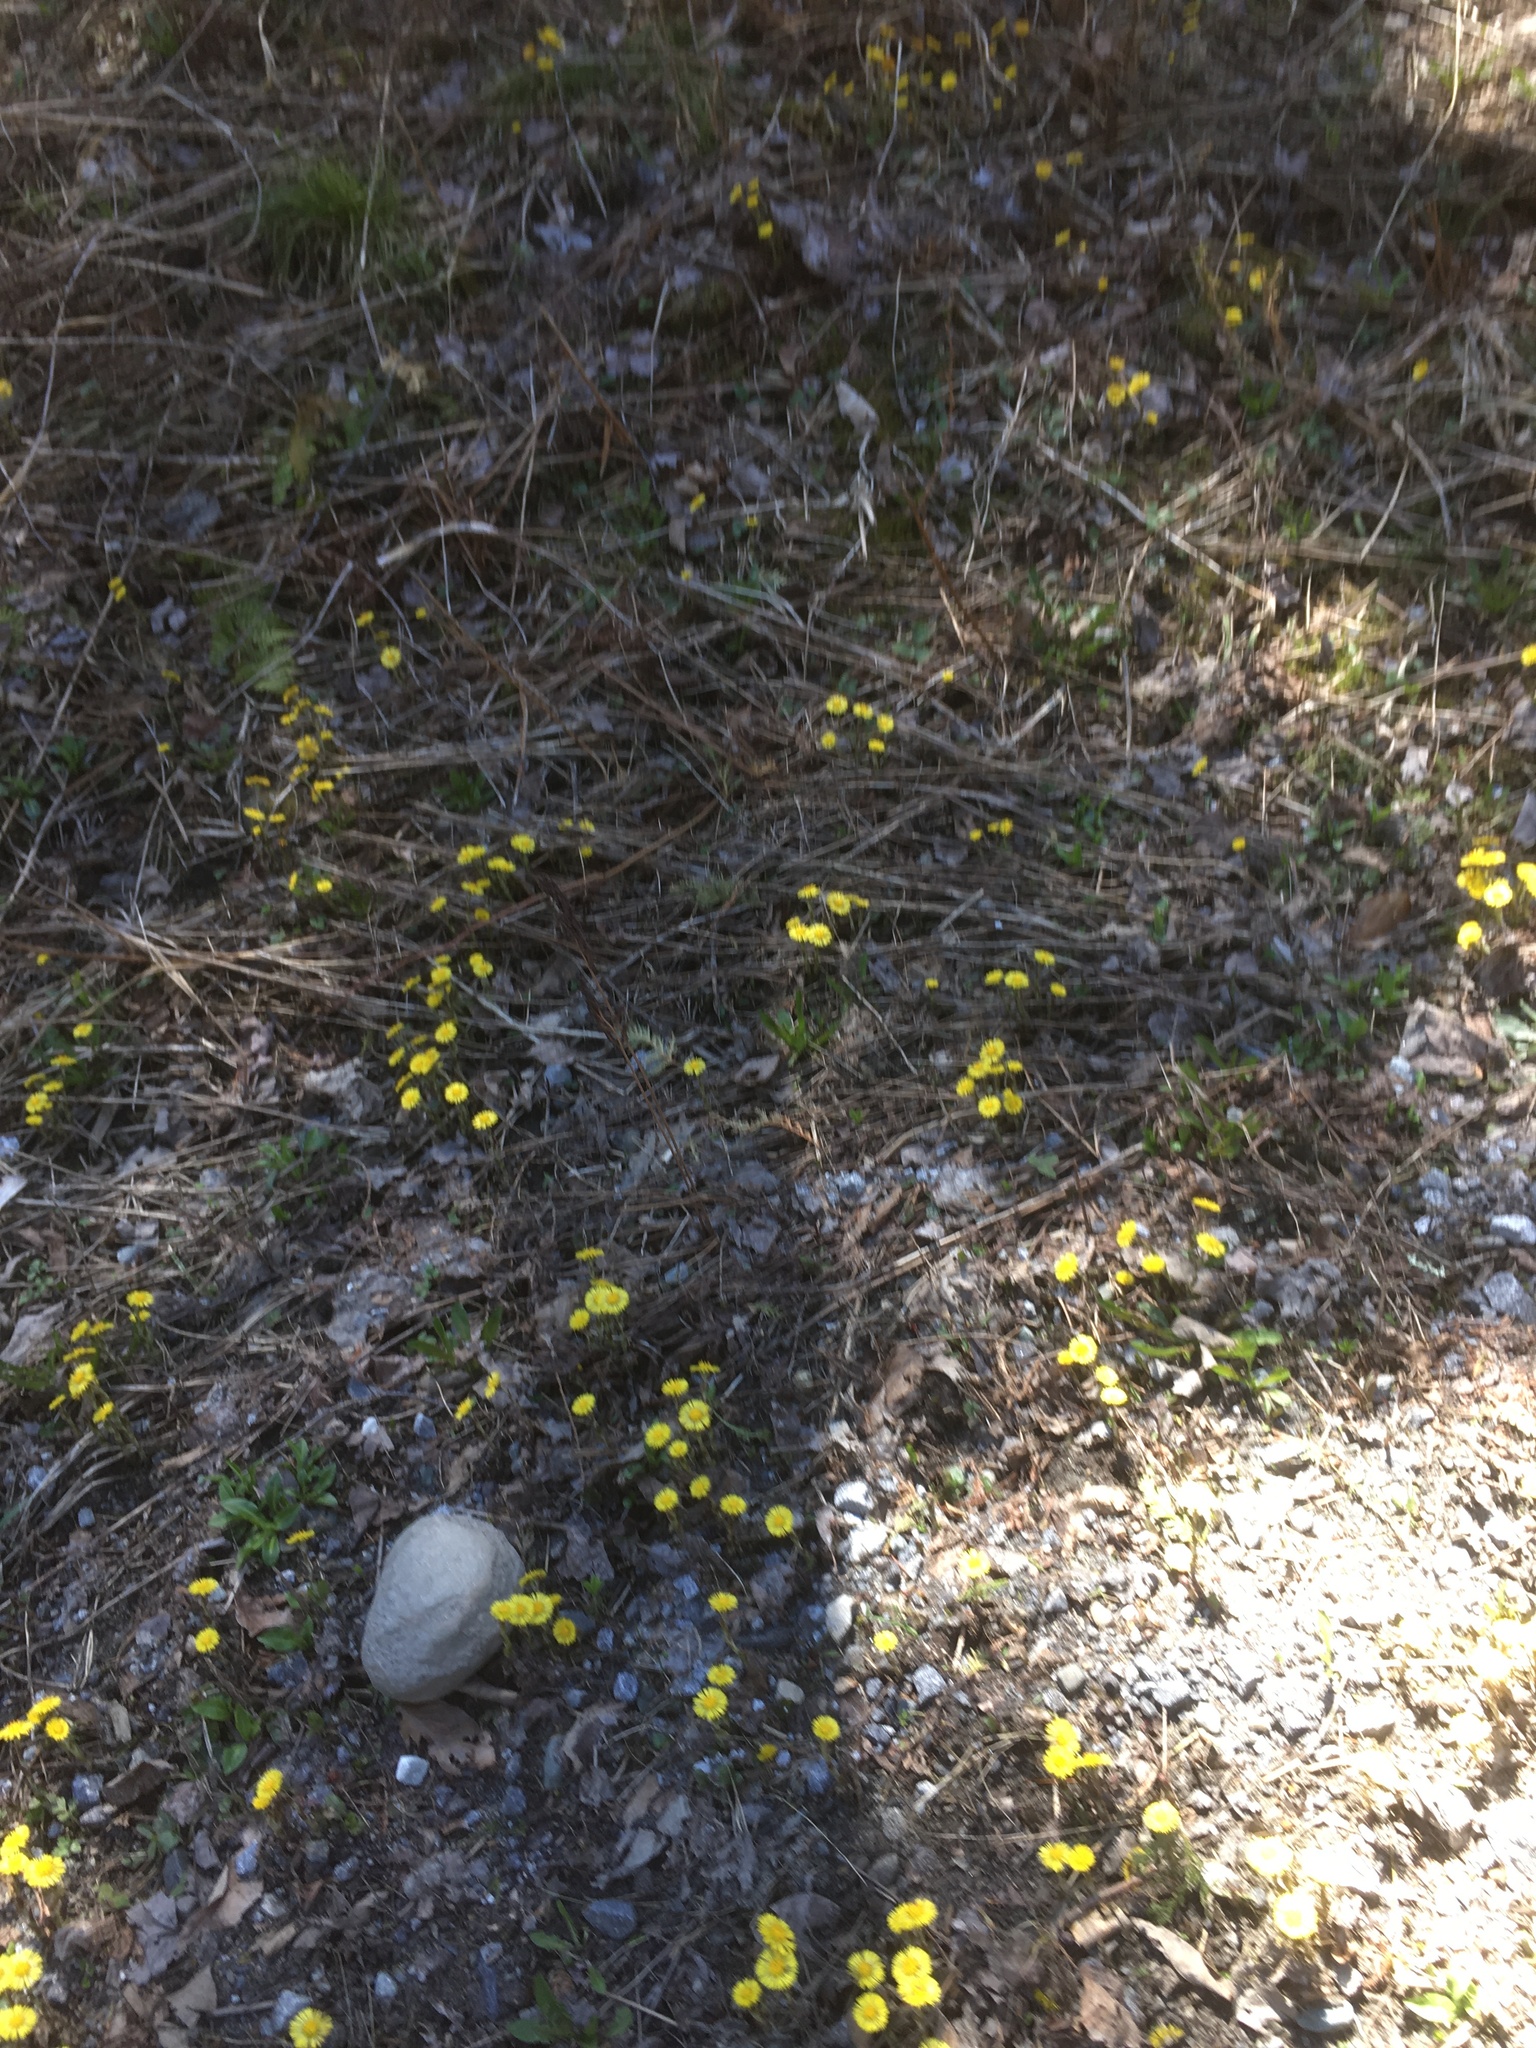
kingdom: Plantae
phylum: Tracheophyta
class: Polypodiopsida
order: Polypodiales
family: Onocleaceae
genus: Onoclea
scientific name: Onoclea sensibilis
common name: Sensitive fern
